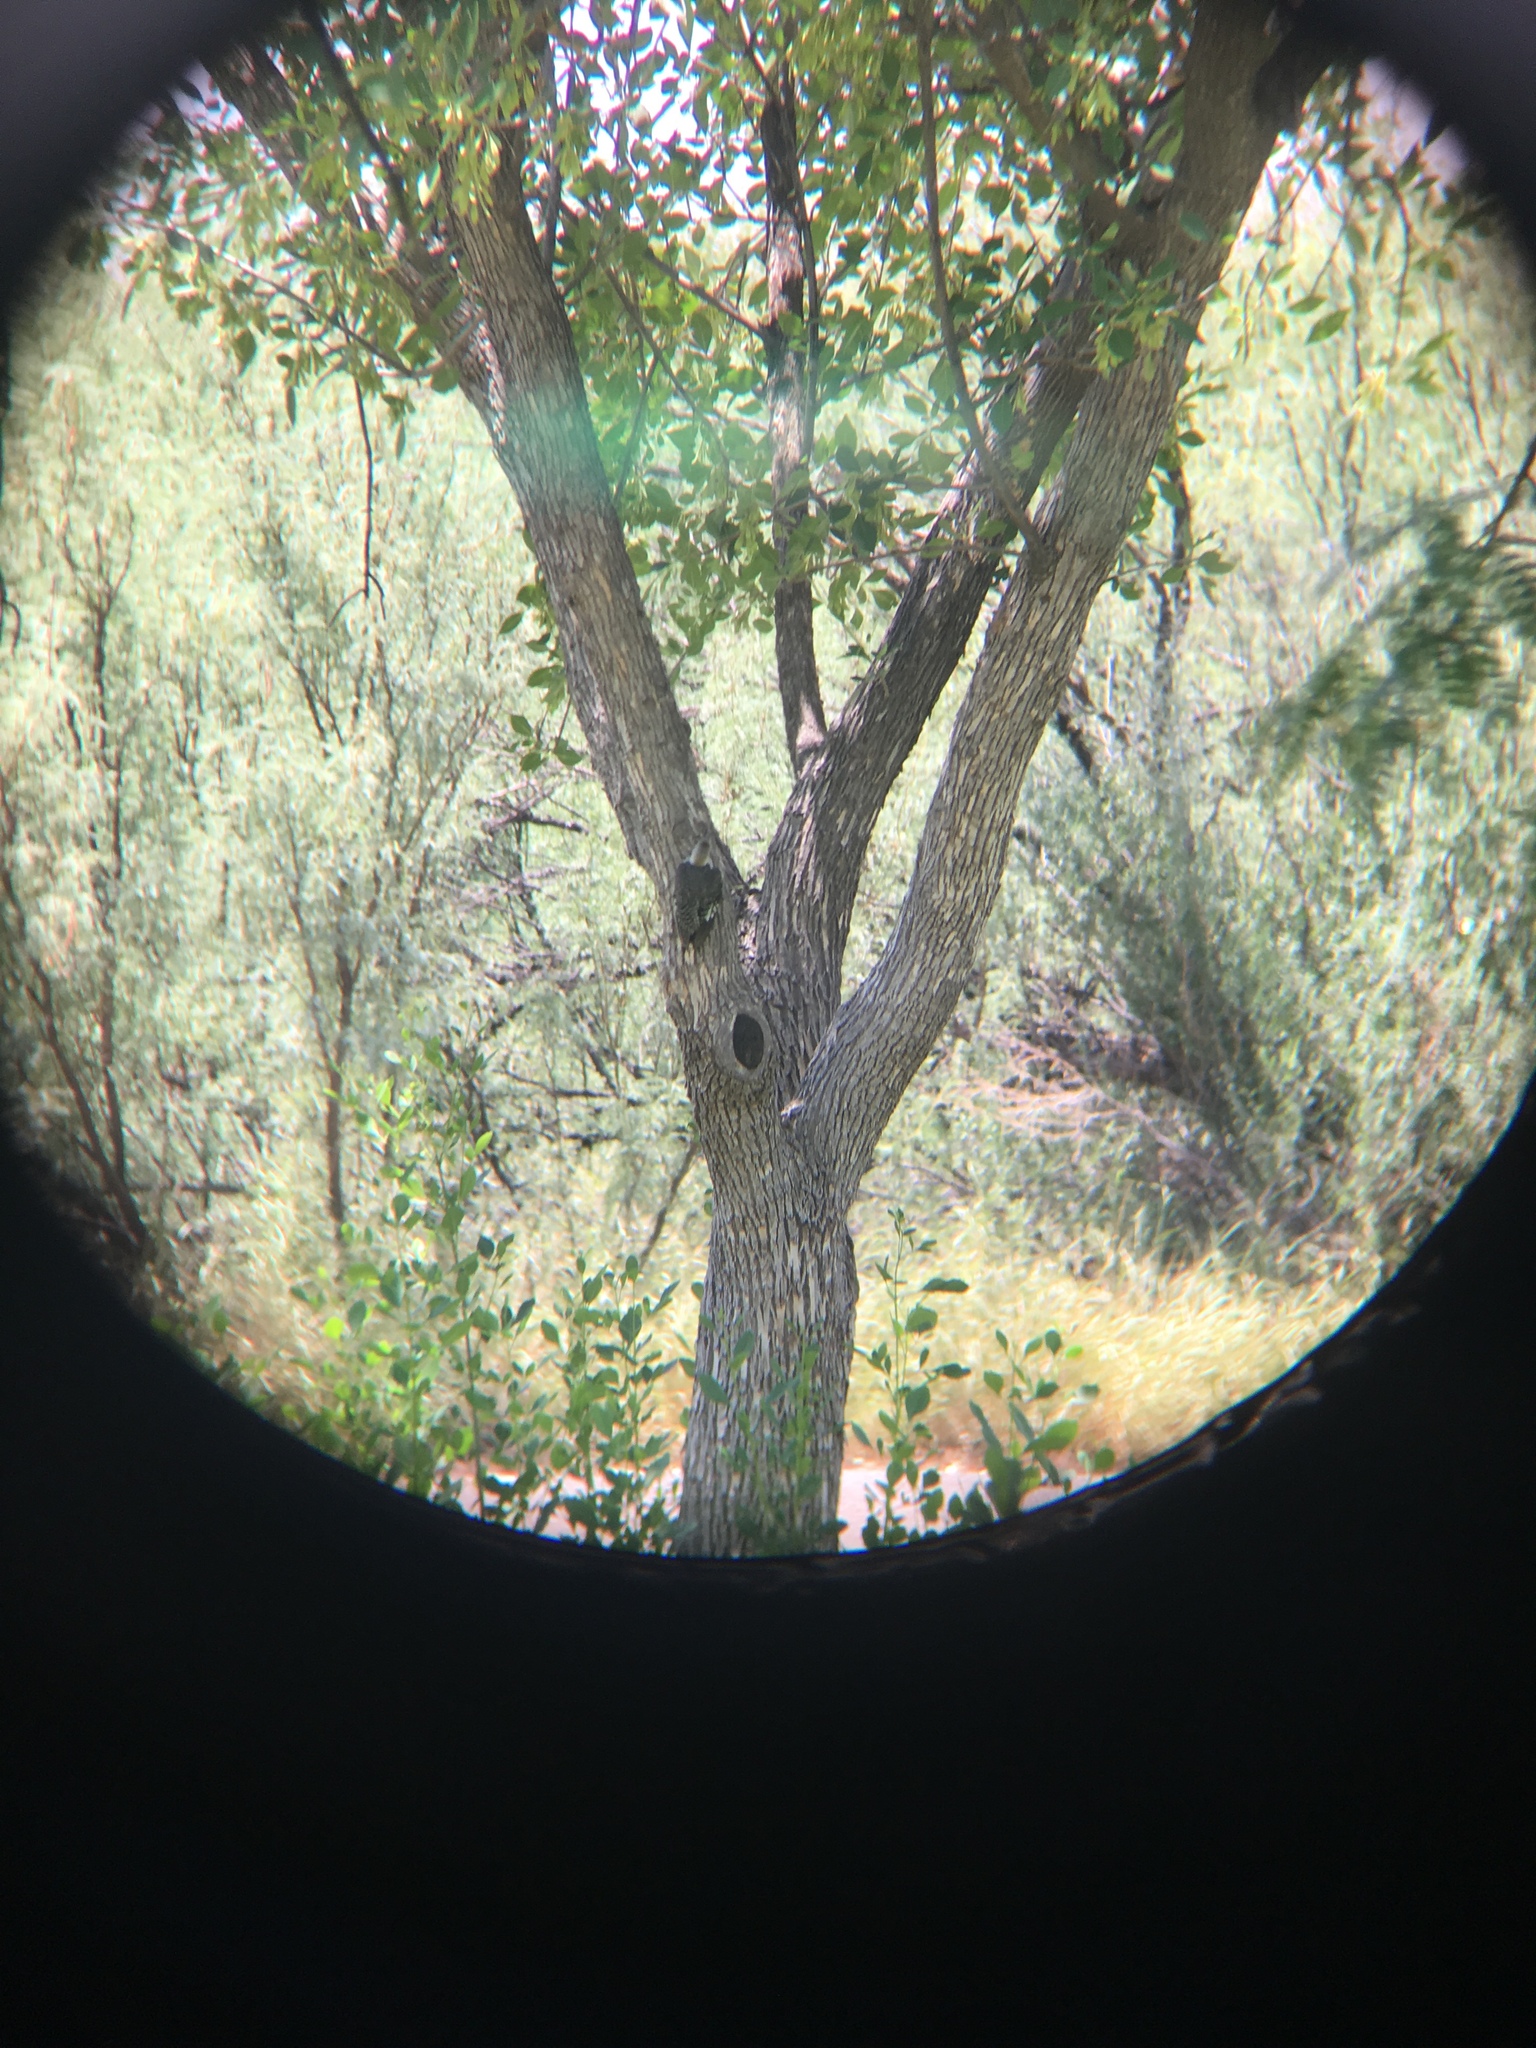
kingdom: Animalia
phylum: Chordata
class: Aves
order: Piciformes
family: Picidae
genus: Melanerpes
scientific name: Melanerpes aurifrons
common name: Golden-fronted woodpecker
